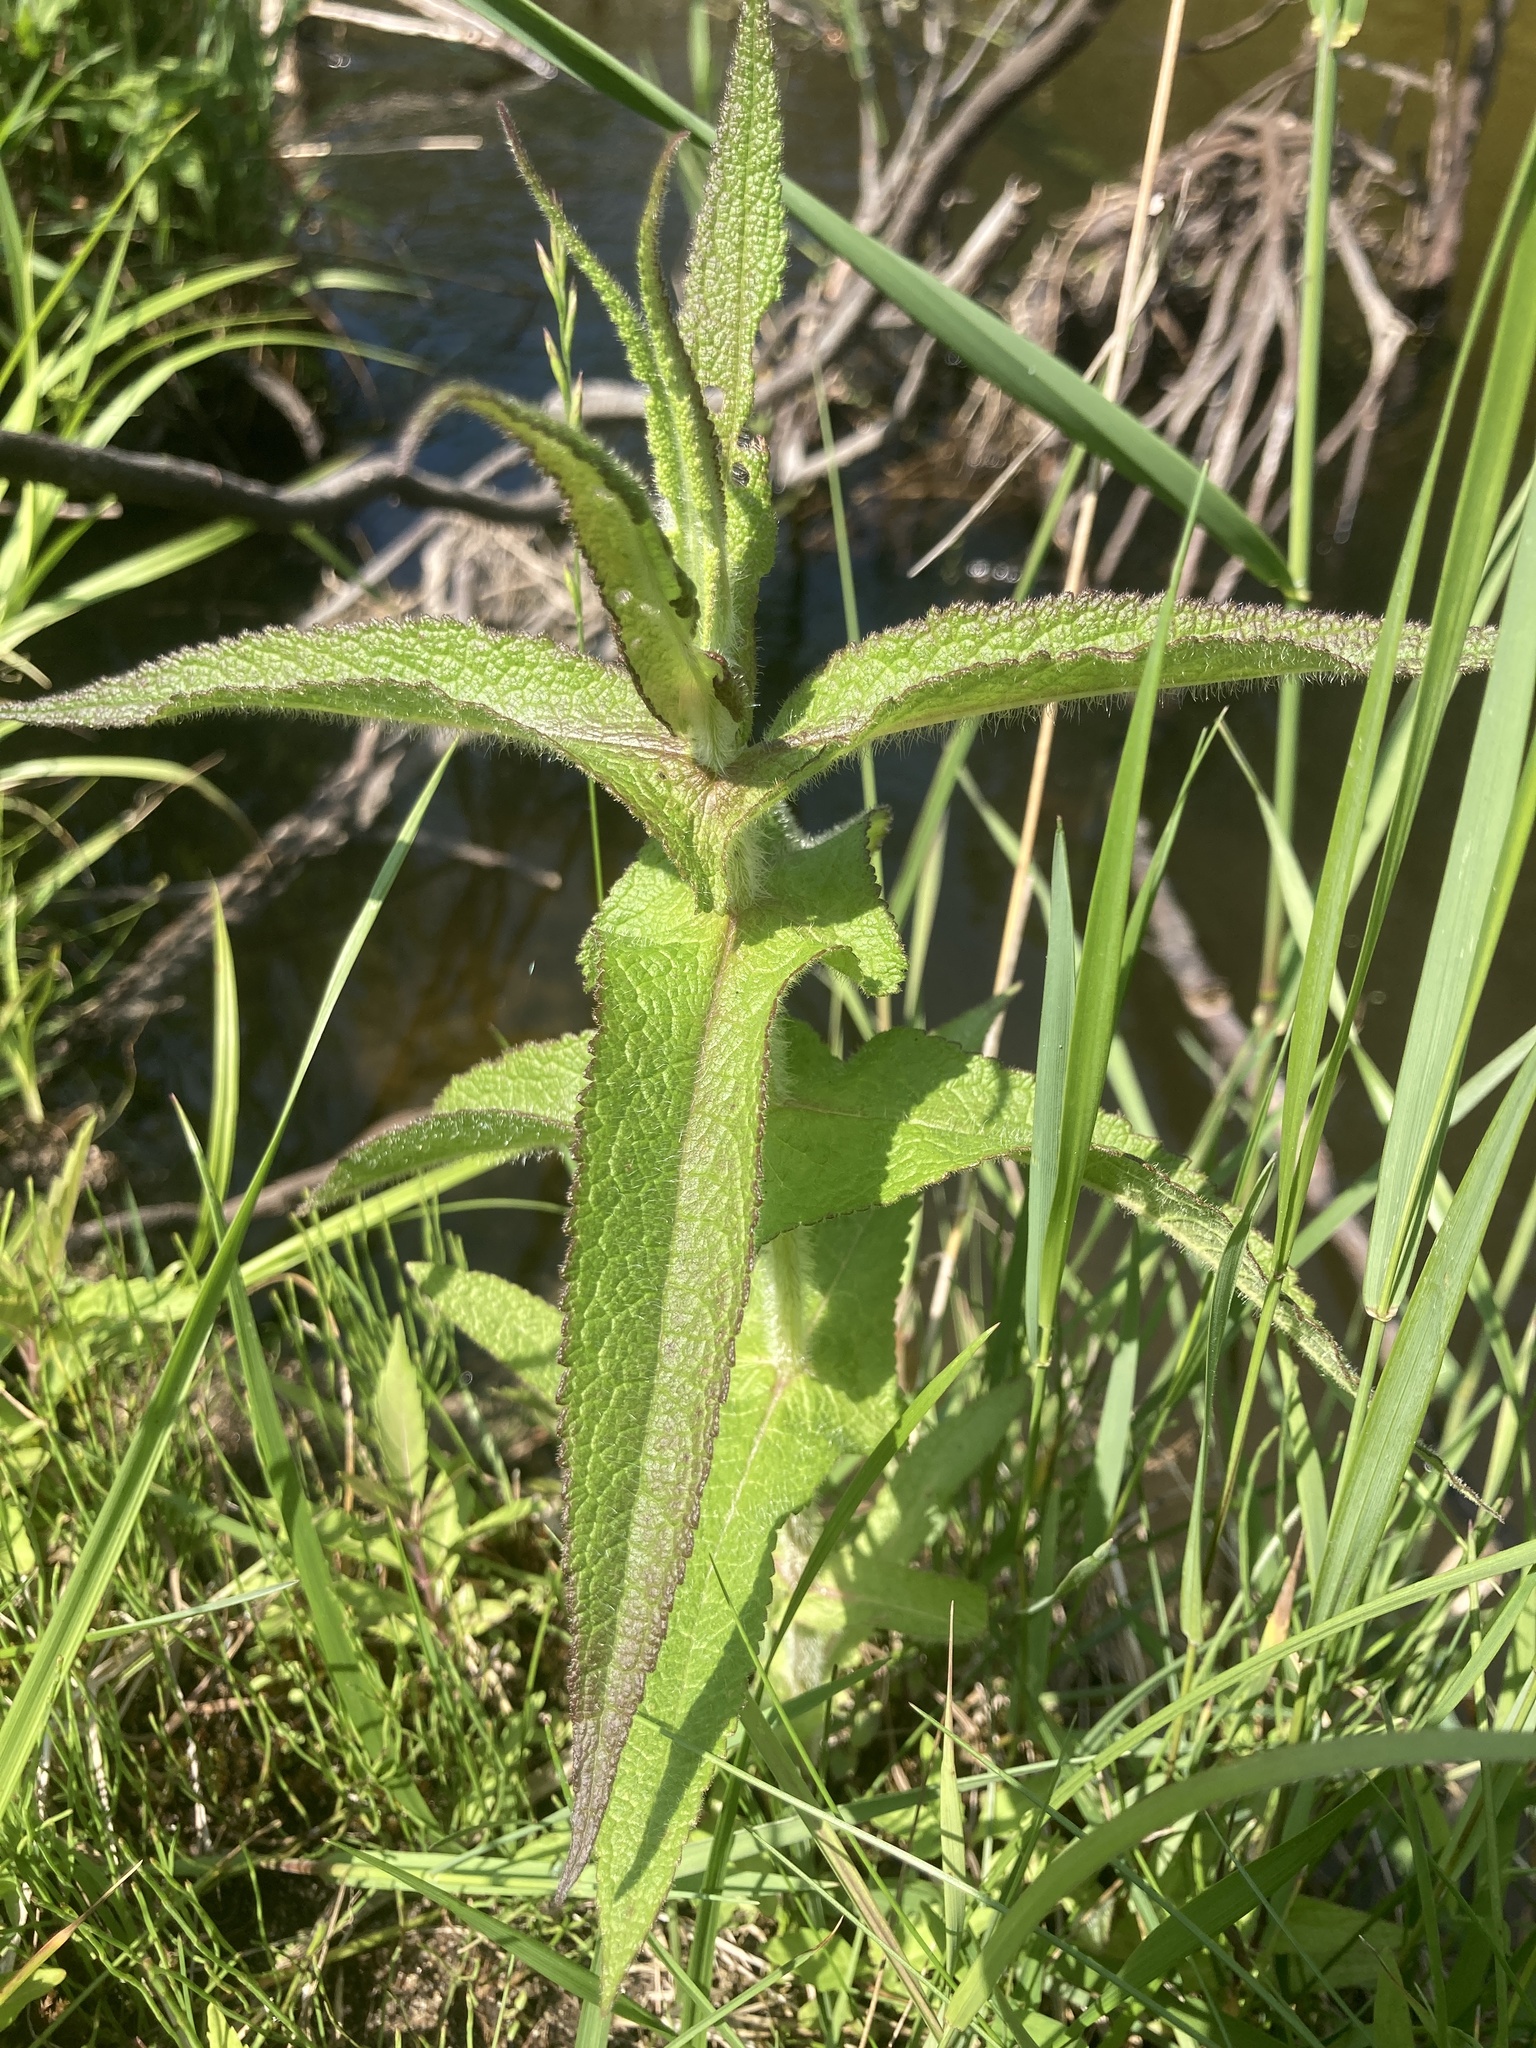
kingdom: Plantae
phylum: Tracheophyta
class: Magnoliopsida
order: Asterales
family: Asteraceae
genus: Eupatorium
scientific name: Eupatorium perfoliatum
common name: Boneset
